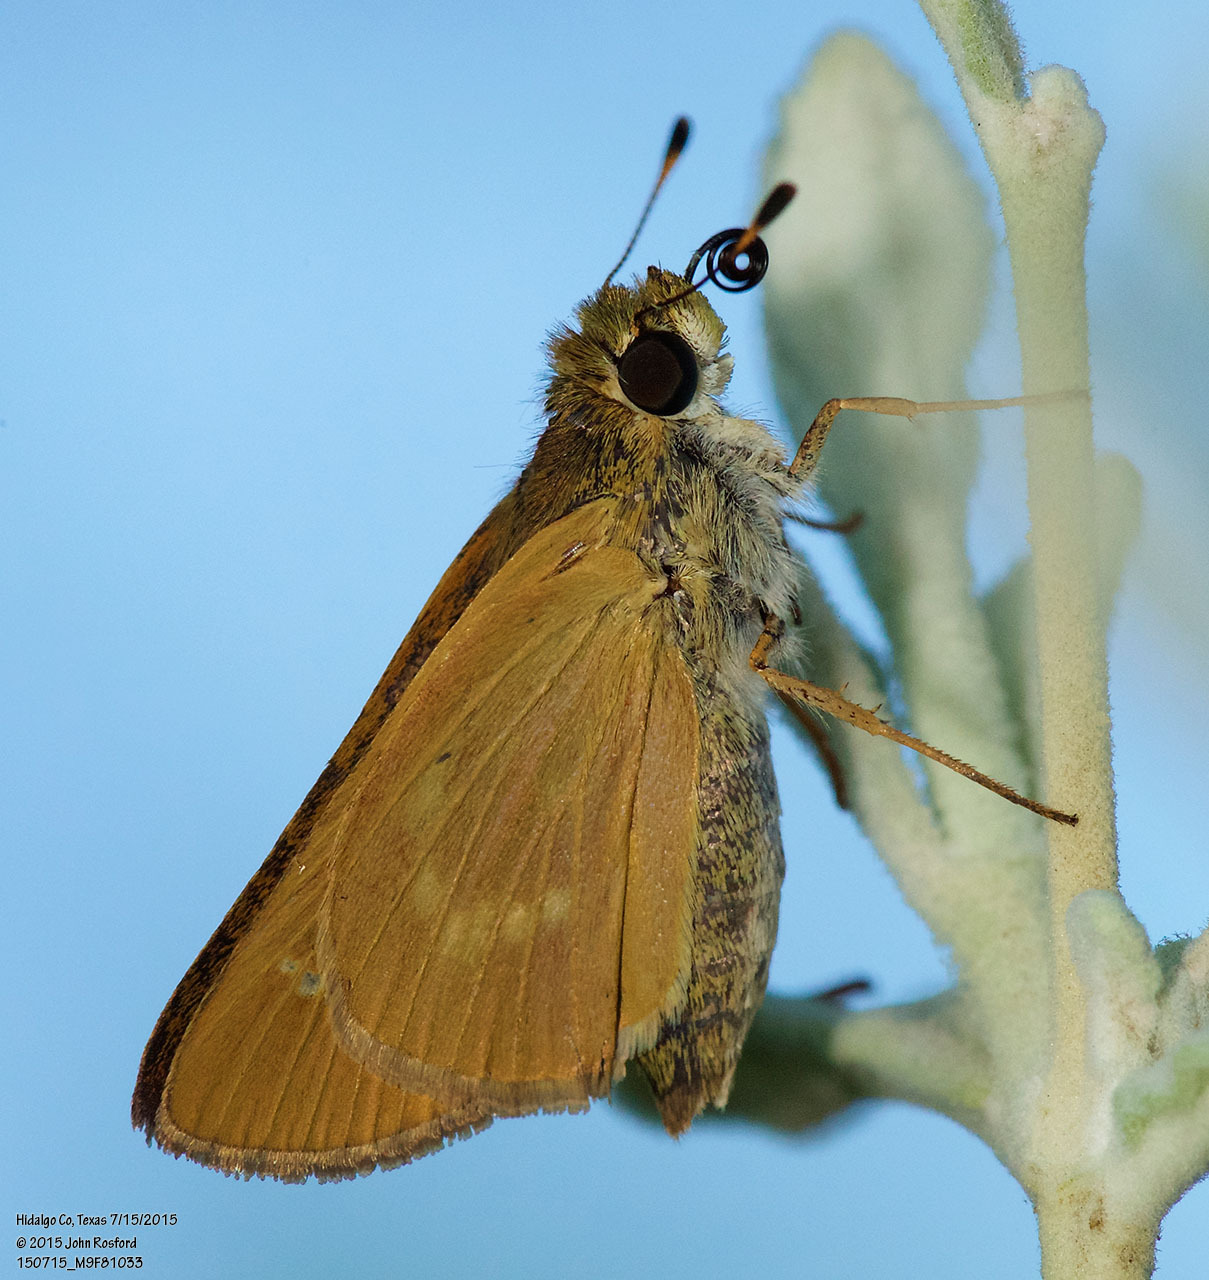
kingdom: Animalia
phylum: Arthropoda
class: Insecta
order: Lepidoptera
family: Hesperiidae
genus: Mellana
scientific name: Mellana eulogius
